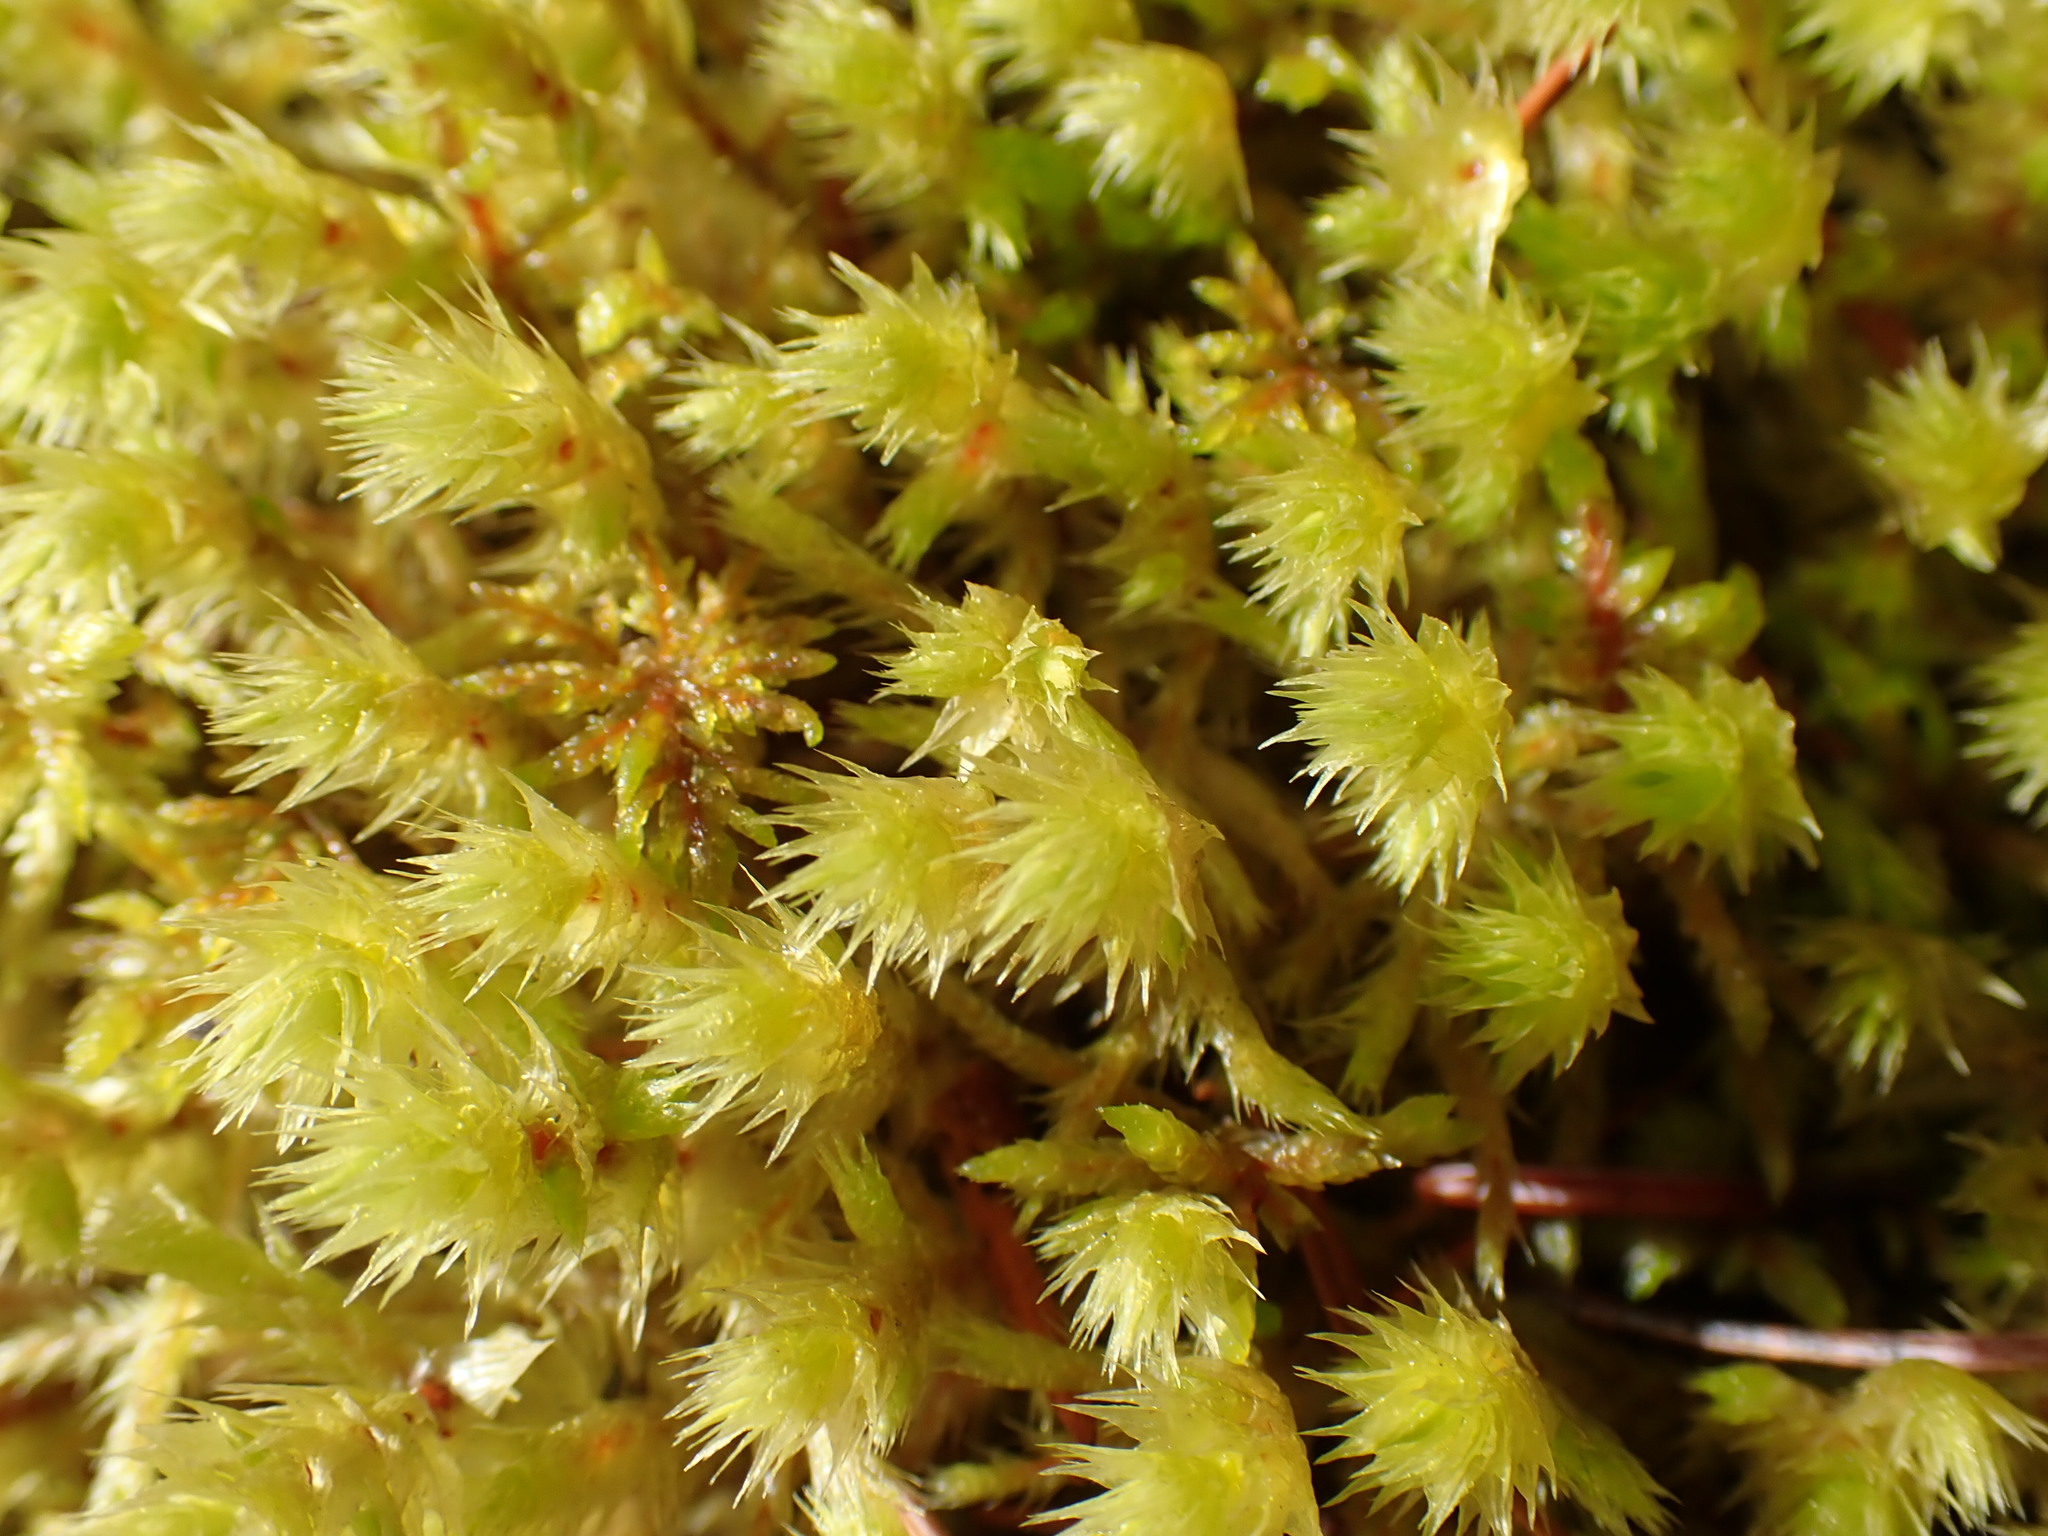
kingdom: Plantae
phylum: Bryophyta
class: Bryopsida
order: Hypnales
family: Hylocomiaceae
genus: Hylocomiadelphus
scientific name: Hylocomiadelphus triquetrus
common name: Rough goose neck moss
